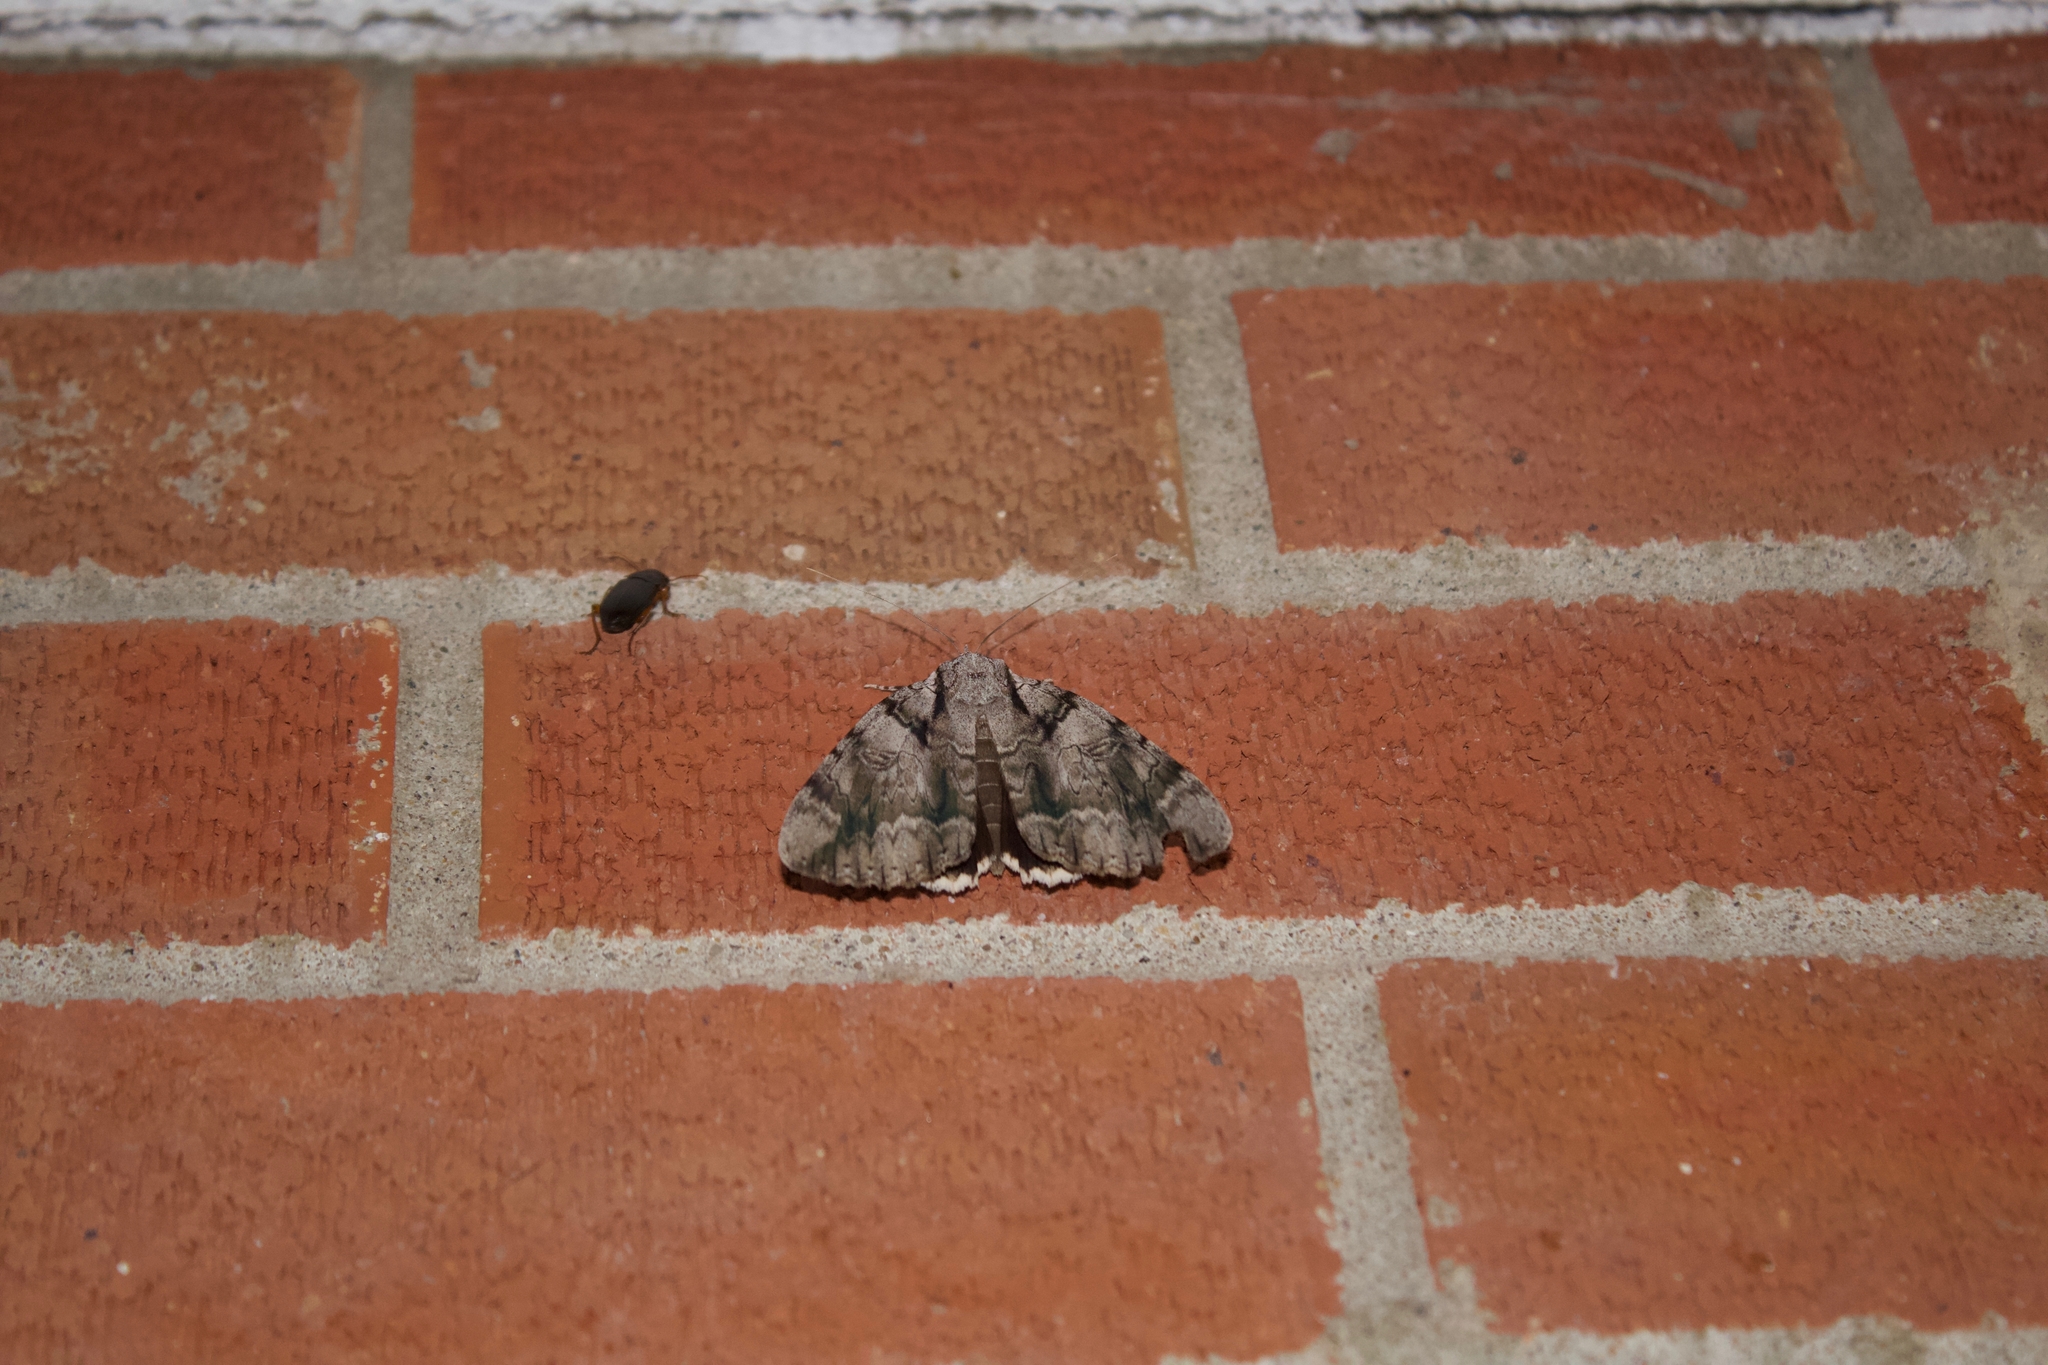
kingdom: Animalia
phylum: Arthropoda
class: Insecta
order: Lepidoptera
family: Erebidae
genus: Catocala
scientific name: Catocala vidua
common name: The widow
